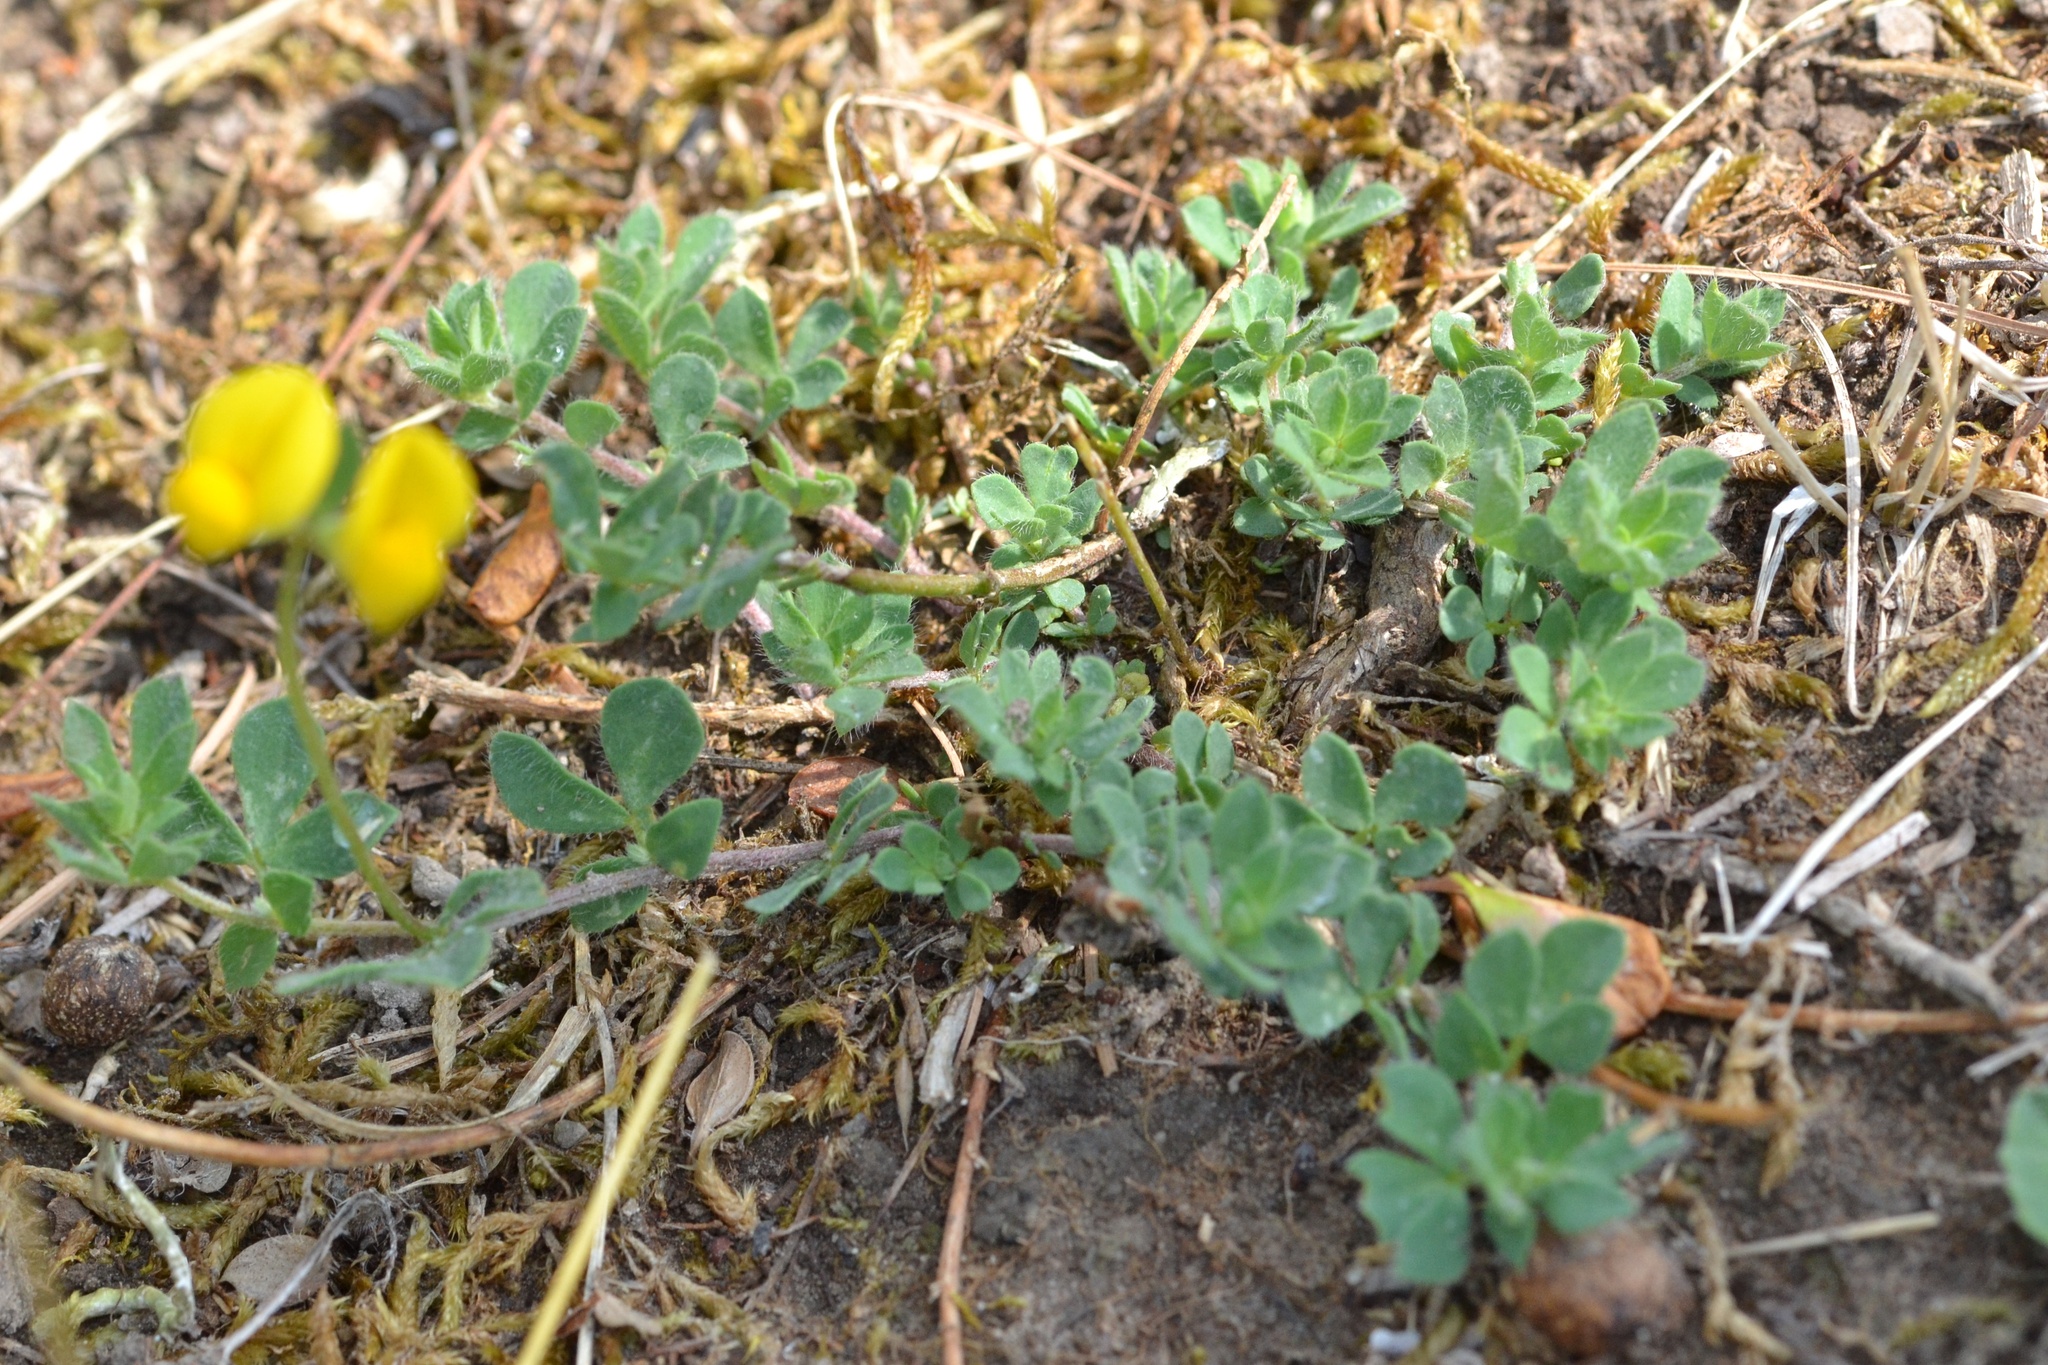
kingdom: Plantae
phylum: Tracheophyta
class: Magnoliopsida
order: Fabales
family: Fabaceae
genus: Lotus
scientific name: Lotus corniculatus
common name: Common bird's-foot-trefoil
